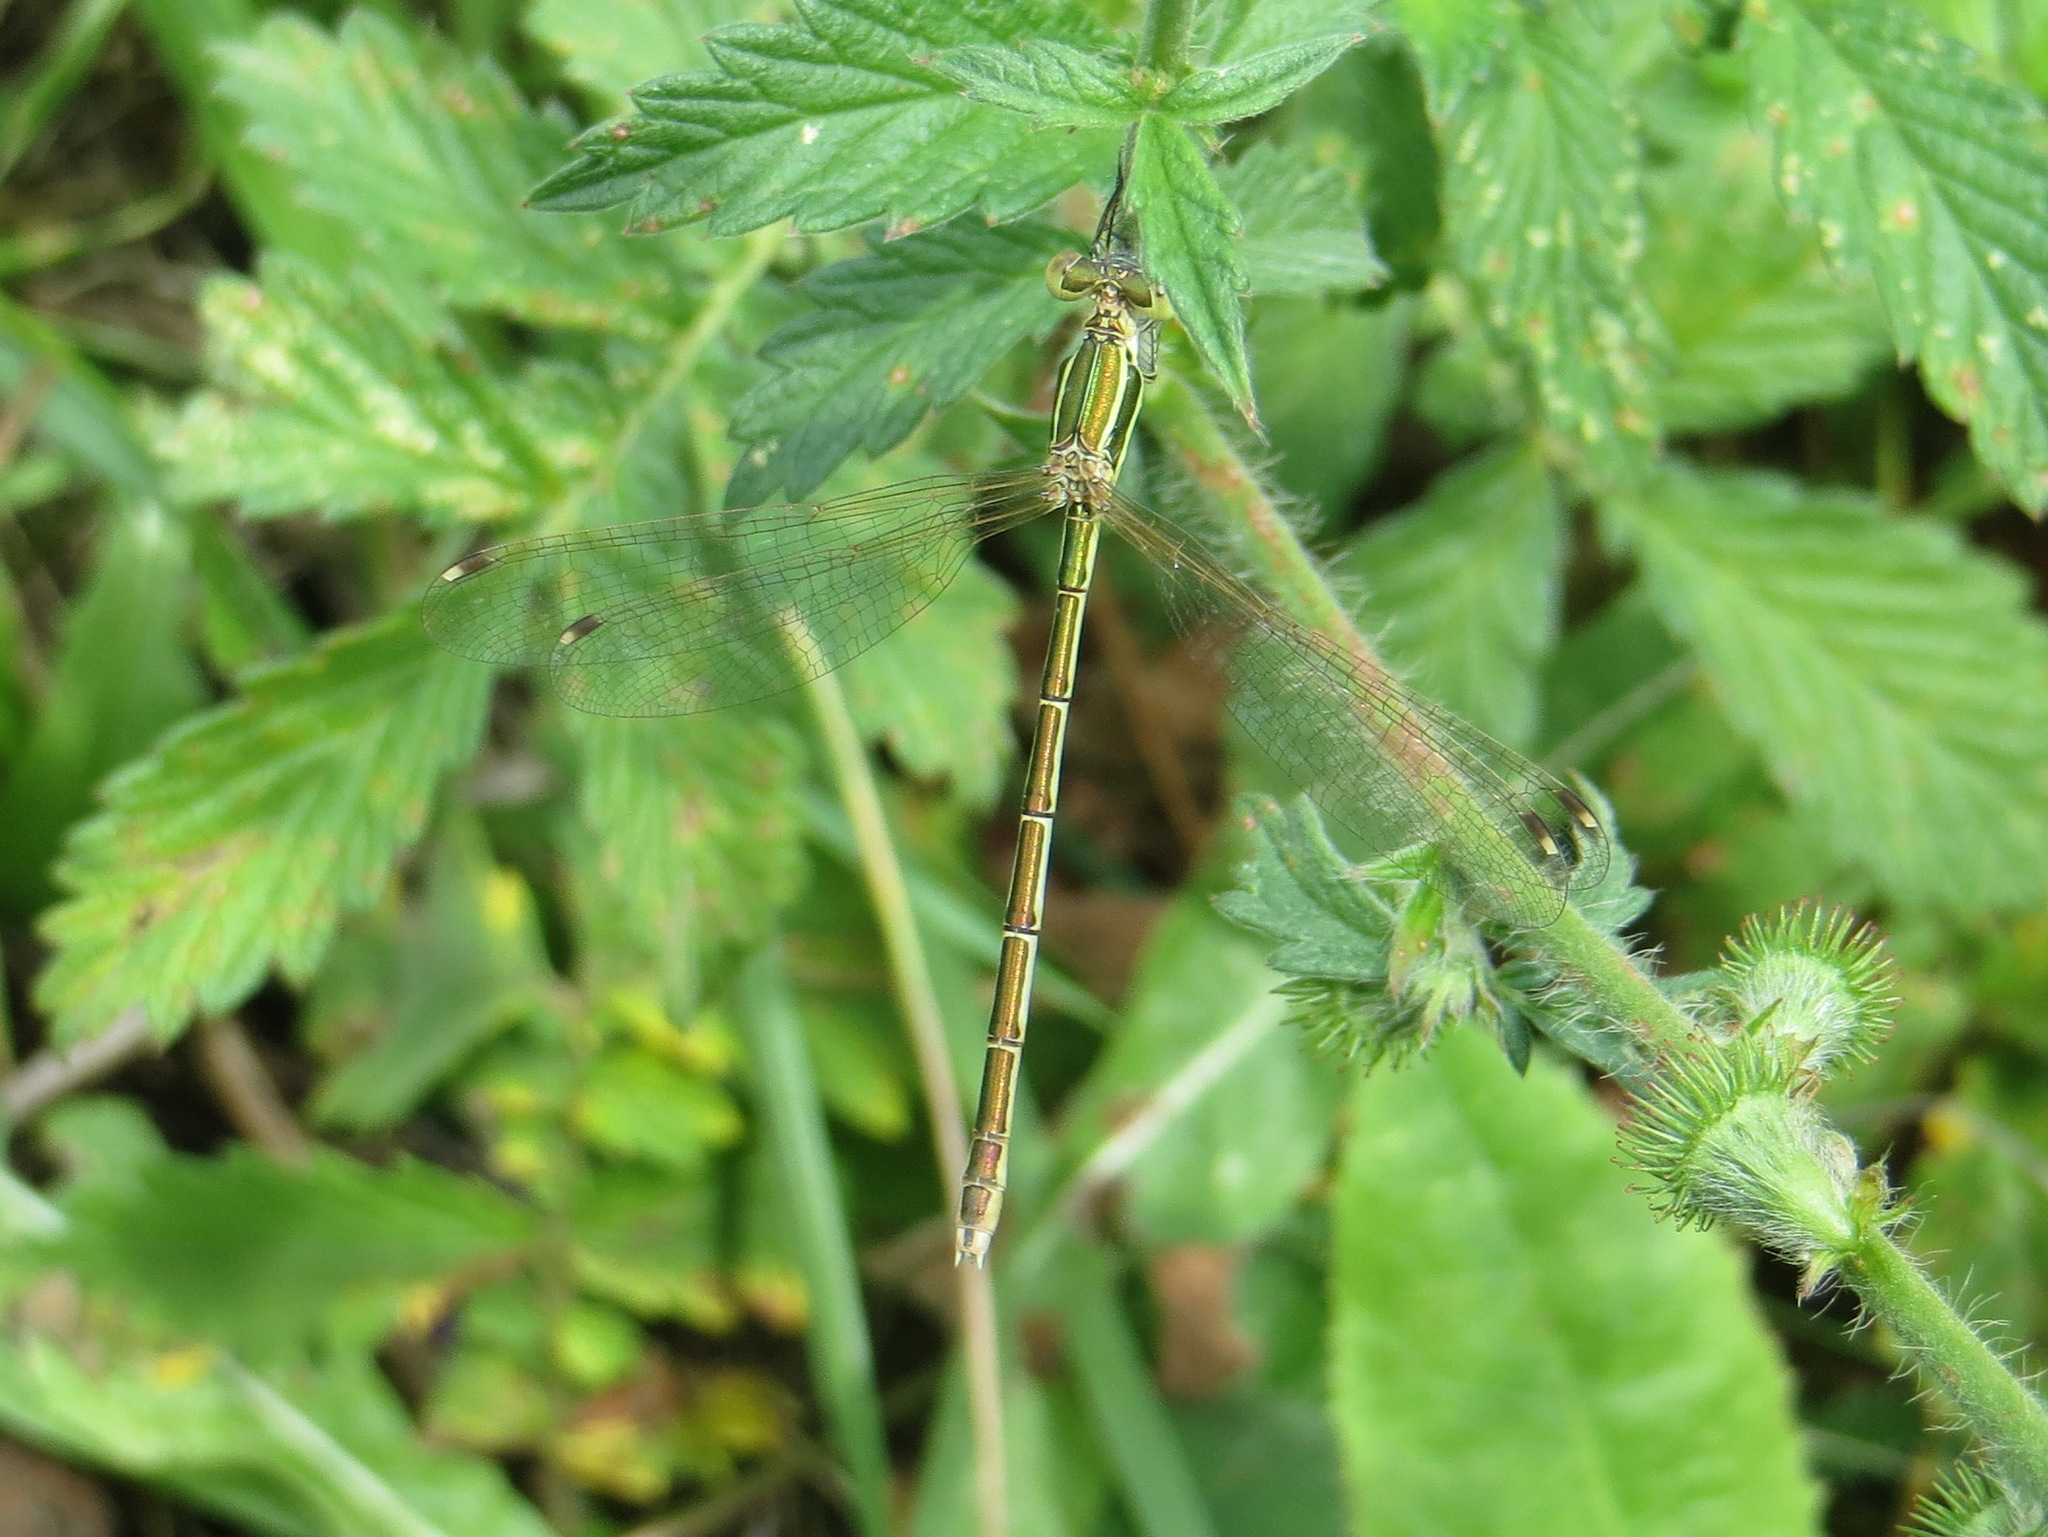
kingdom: Animalia
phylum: Arthropoda
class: Insecta
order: Odonata
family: Lestidae
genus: Lestes
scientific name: Lestes barbarus
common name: Migrant spreadwing
